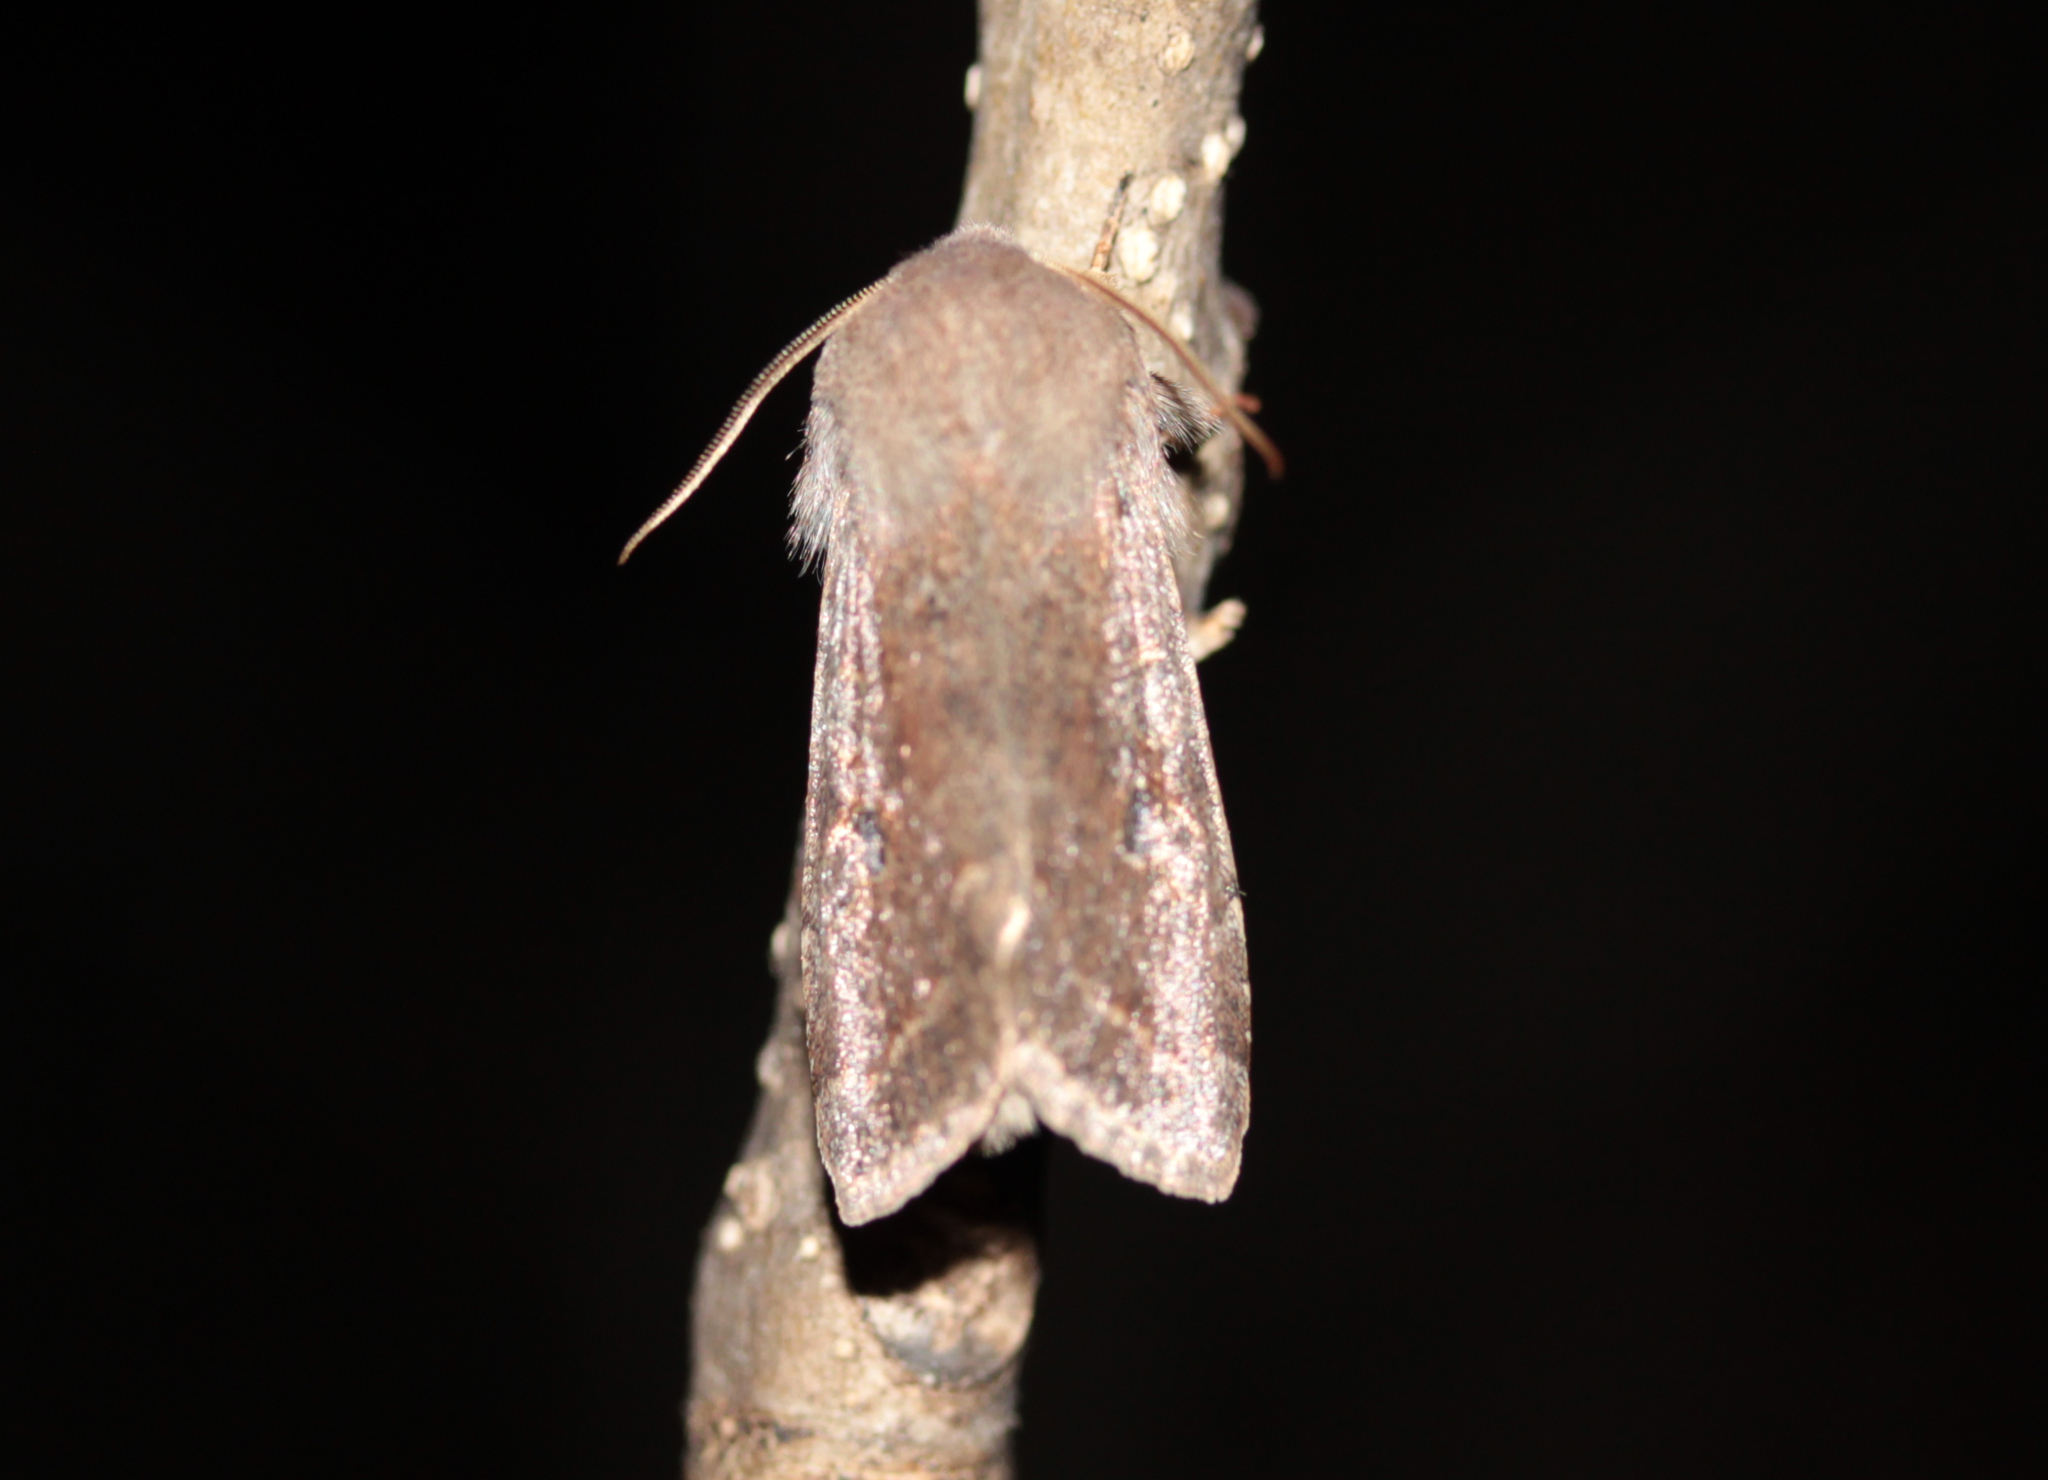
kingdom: Animalia
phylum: Arthropoda
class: Insecta
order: Lepidoptera
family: Noctuidae
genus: Orthosia
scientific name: Orthosia hibisci
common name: Green fruitworm
